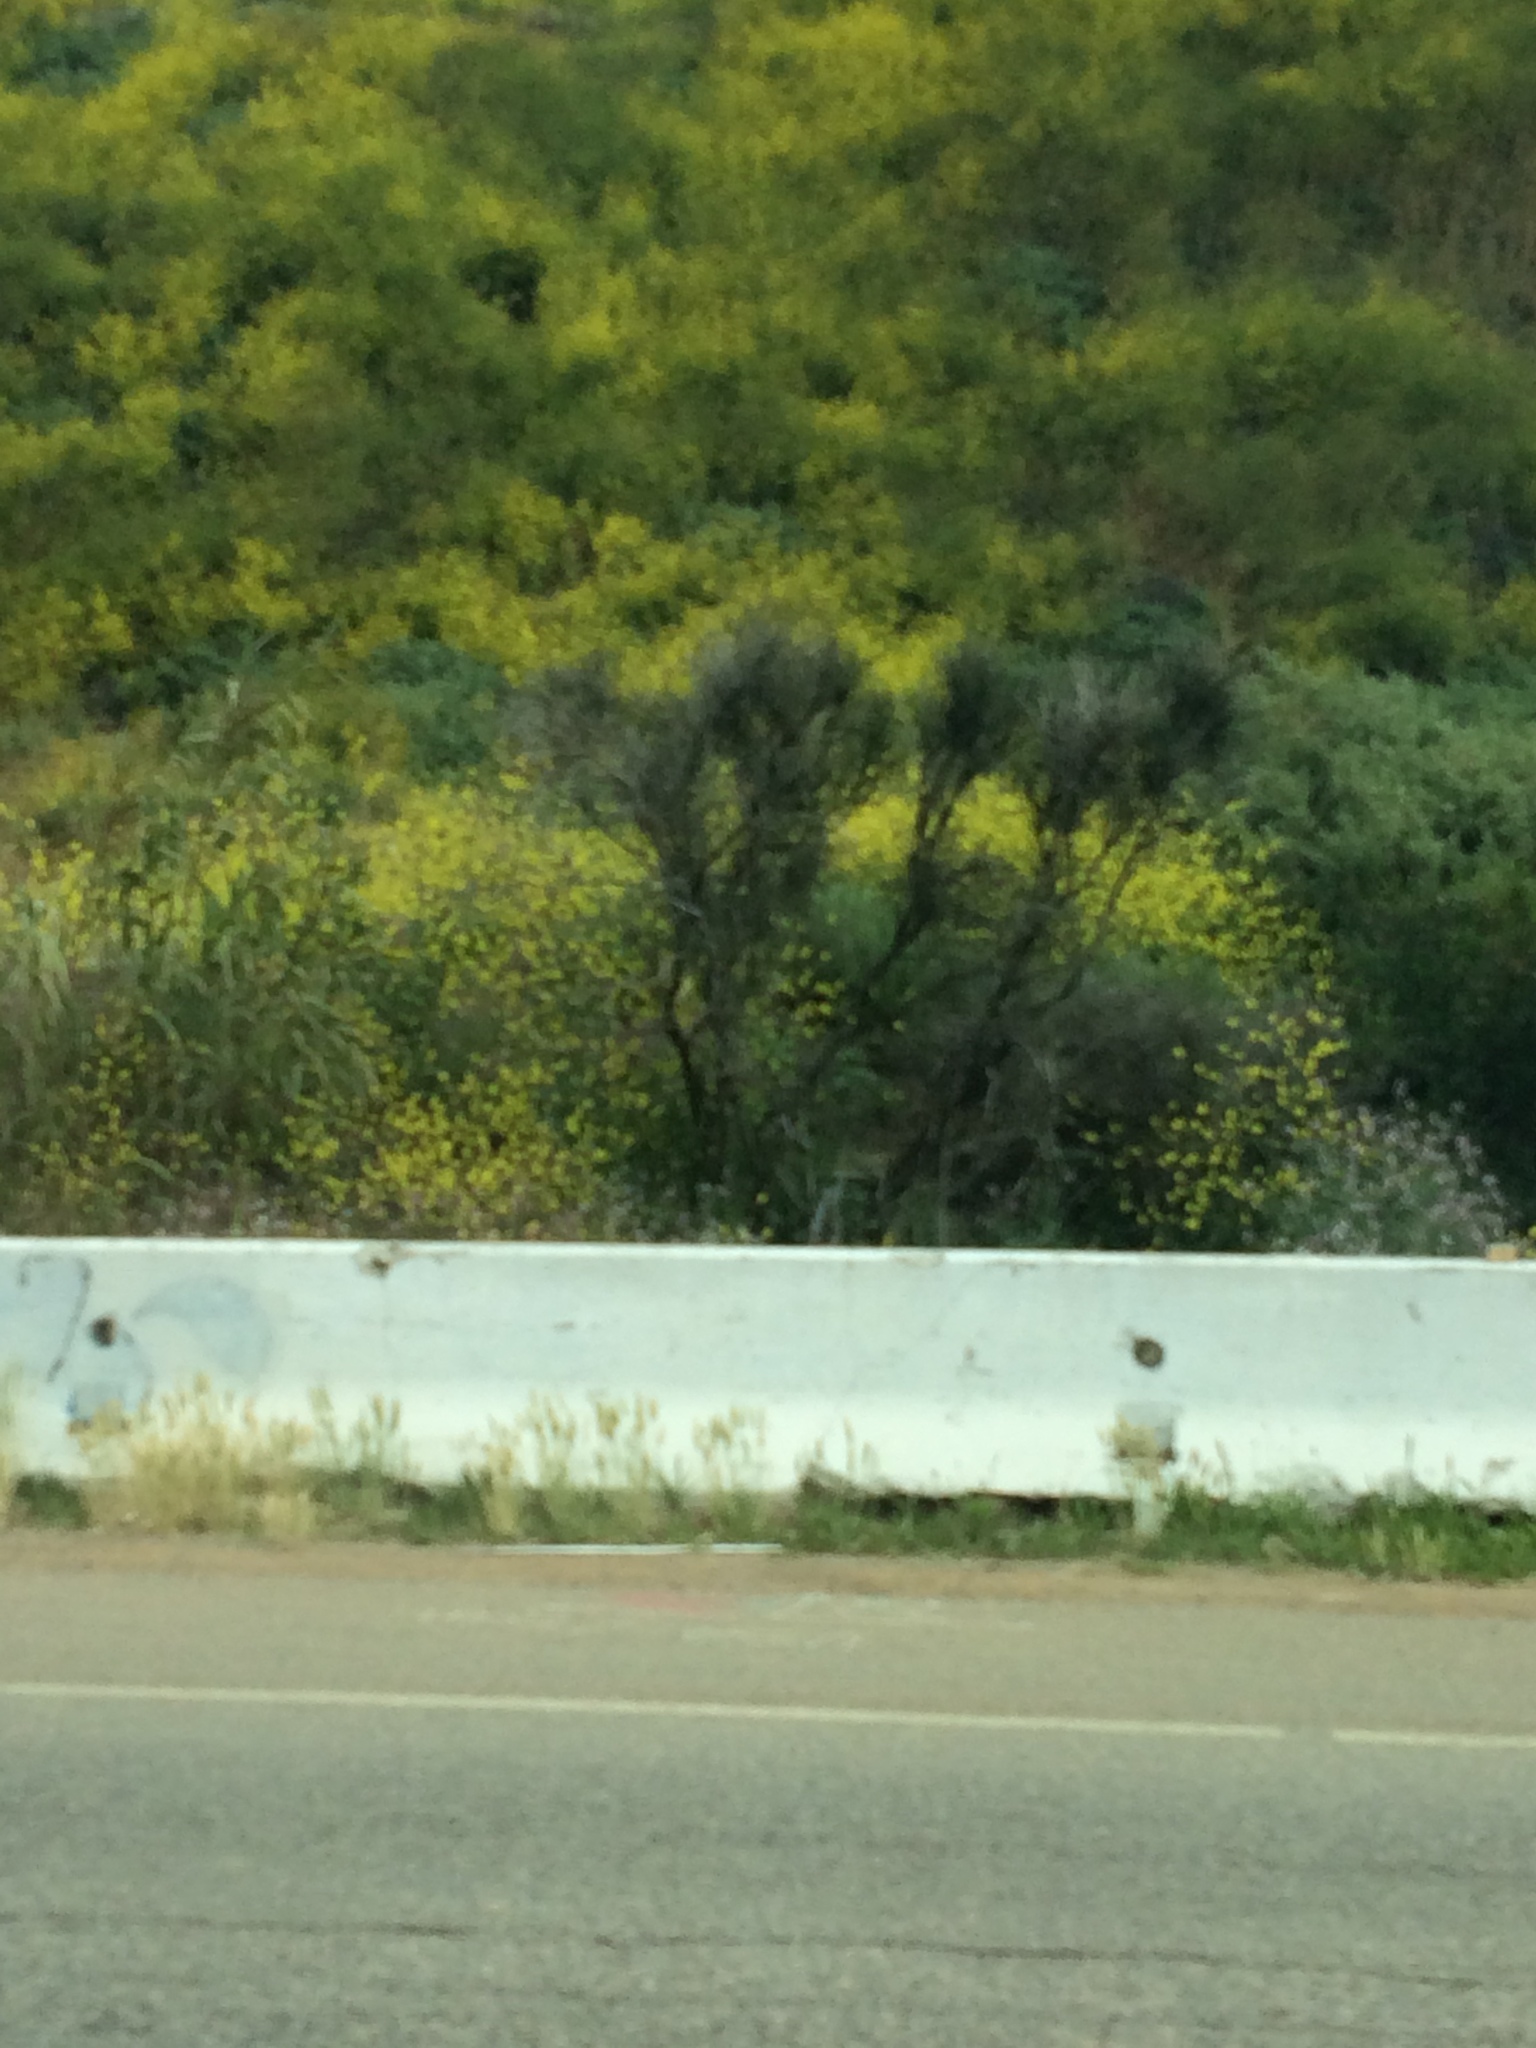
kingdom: Plantae
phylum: Tracheophyta
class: Magnoliopsida
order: Fabales
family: Fabaceae
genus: Spartium
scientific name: Spartium junceum
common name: Spanish broom
